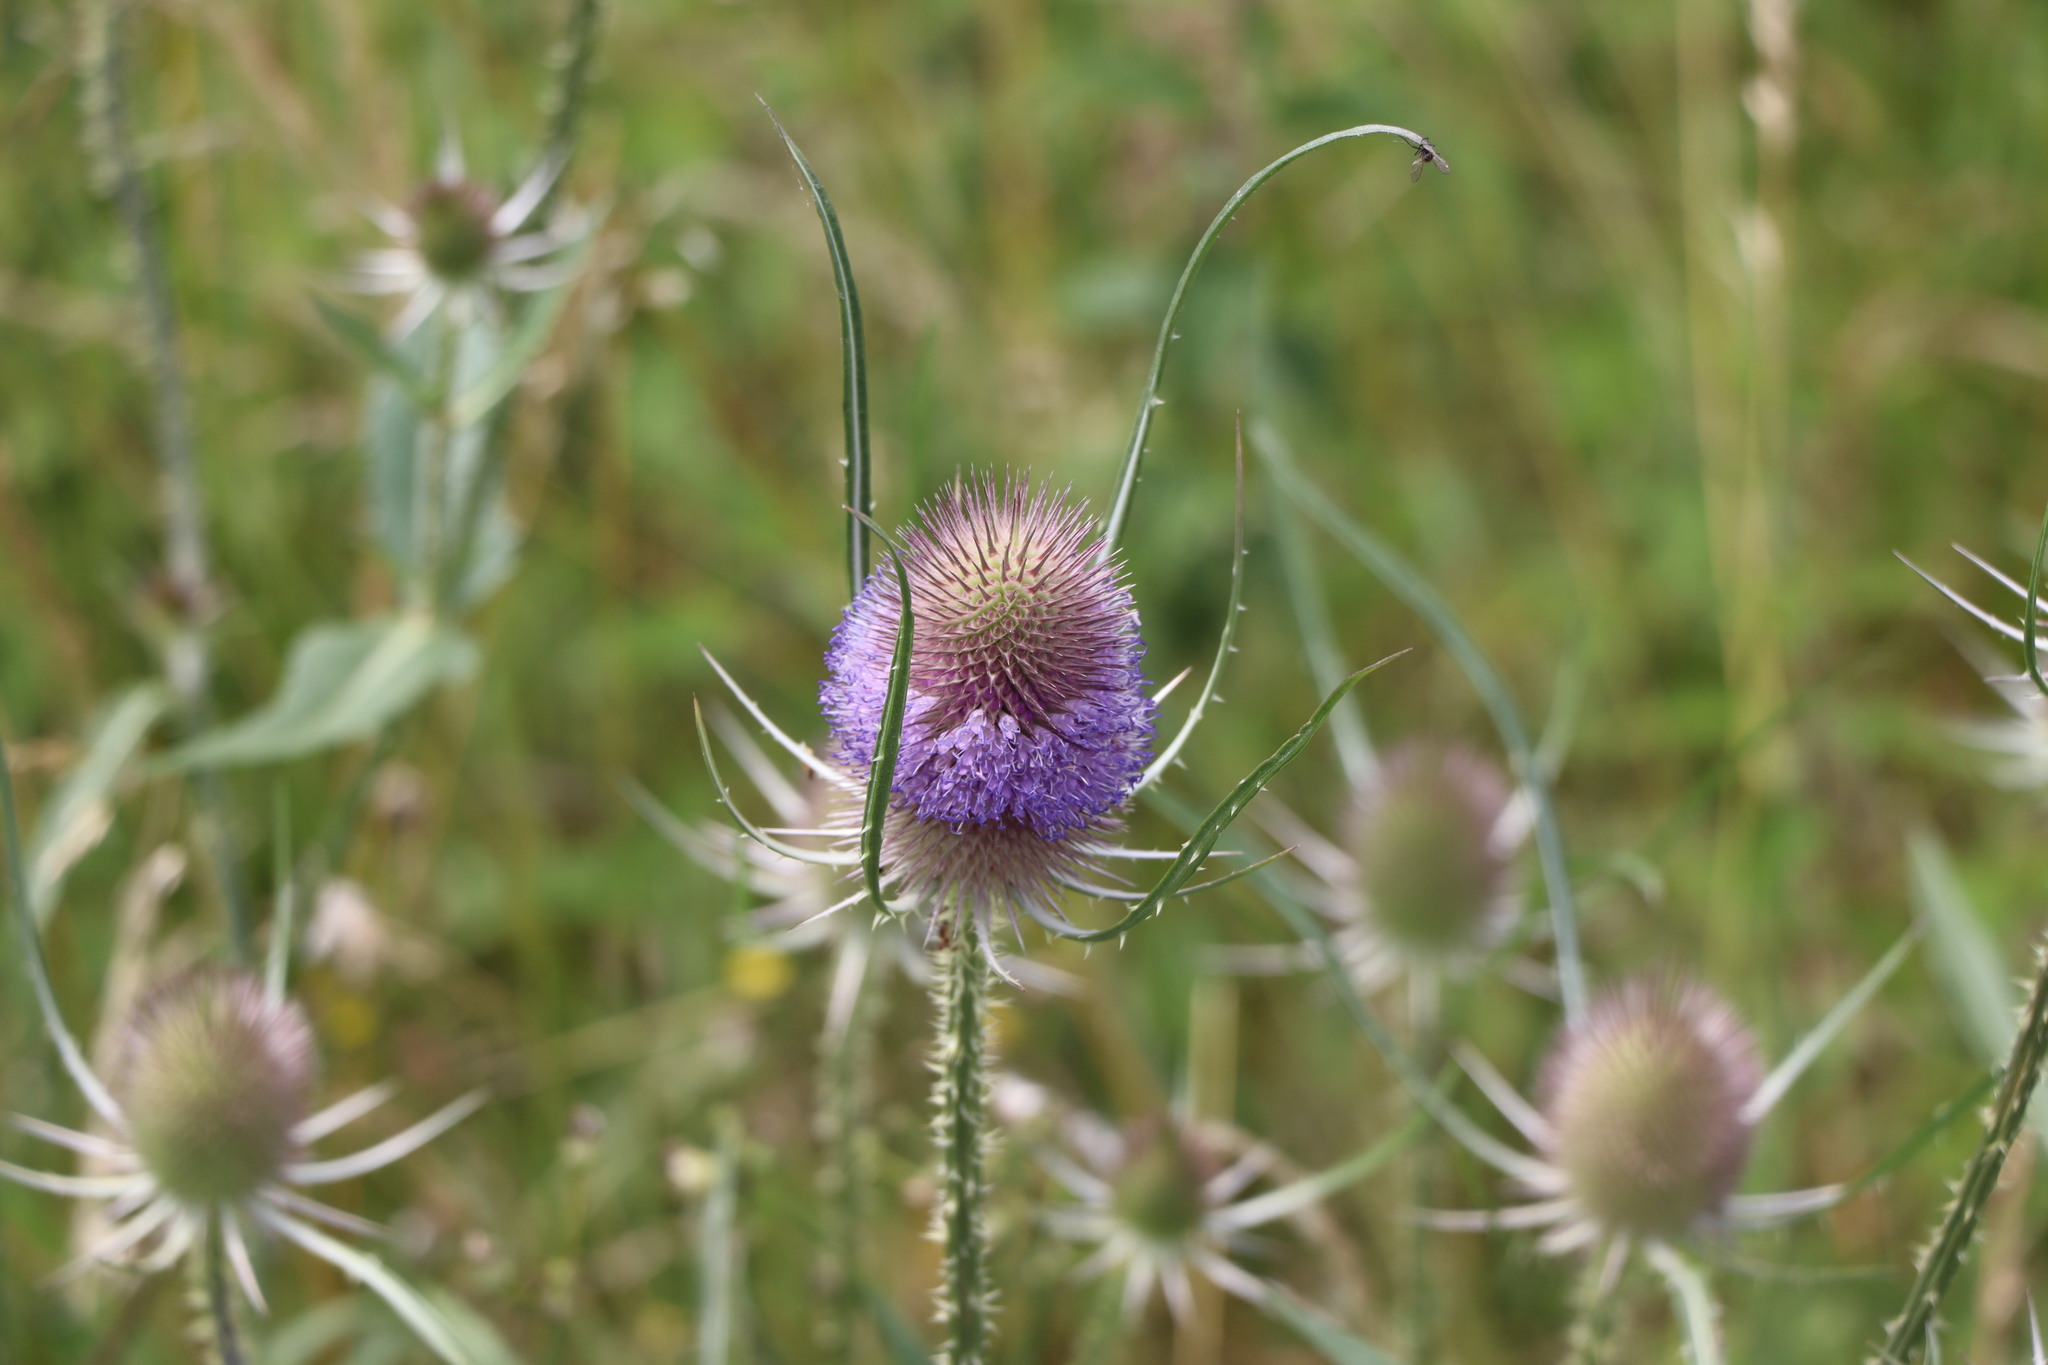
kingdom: Plantae
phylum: Tracheophyta
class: Magnoliopsida
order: Dipsacales
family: Caprifoliaceae
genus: Dipsacus
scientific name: Dipsacus fullonum
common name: Teasel
